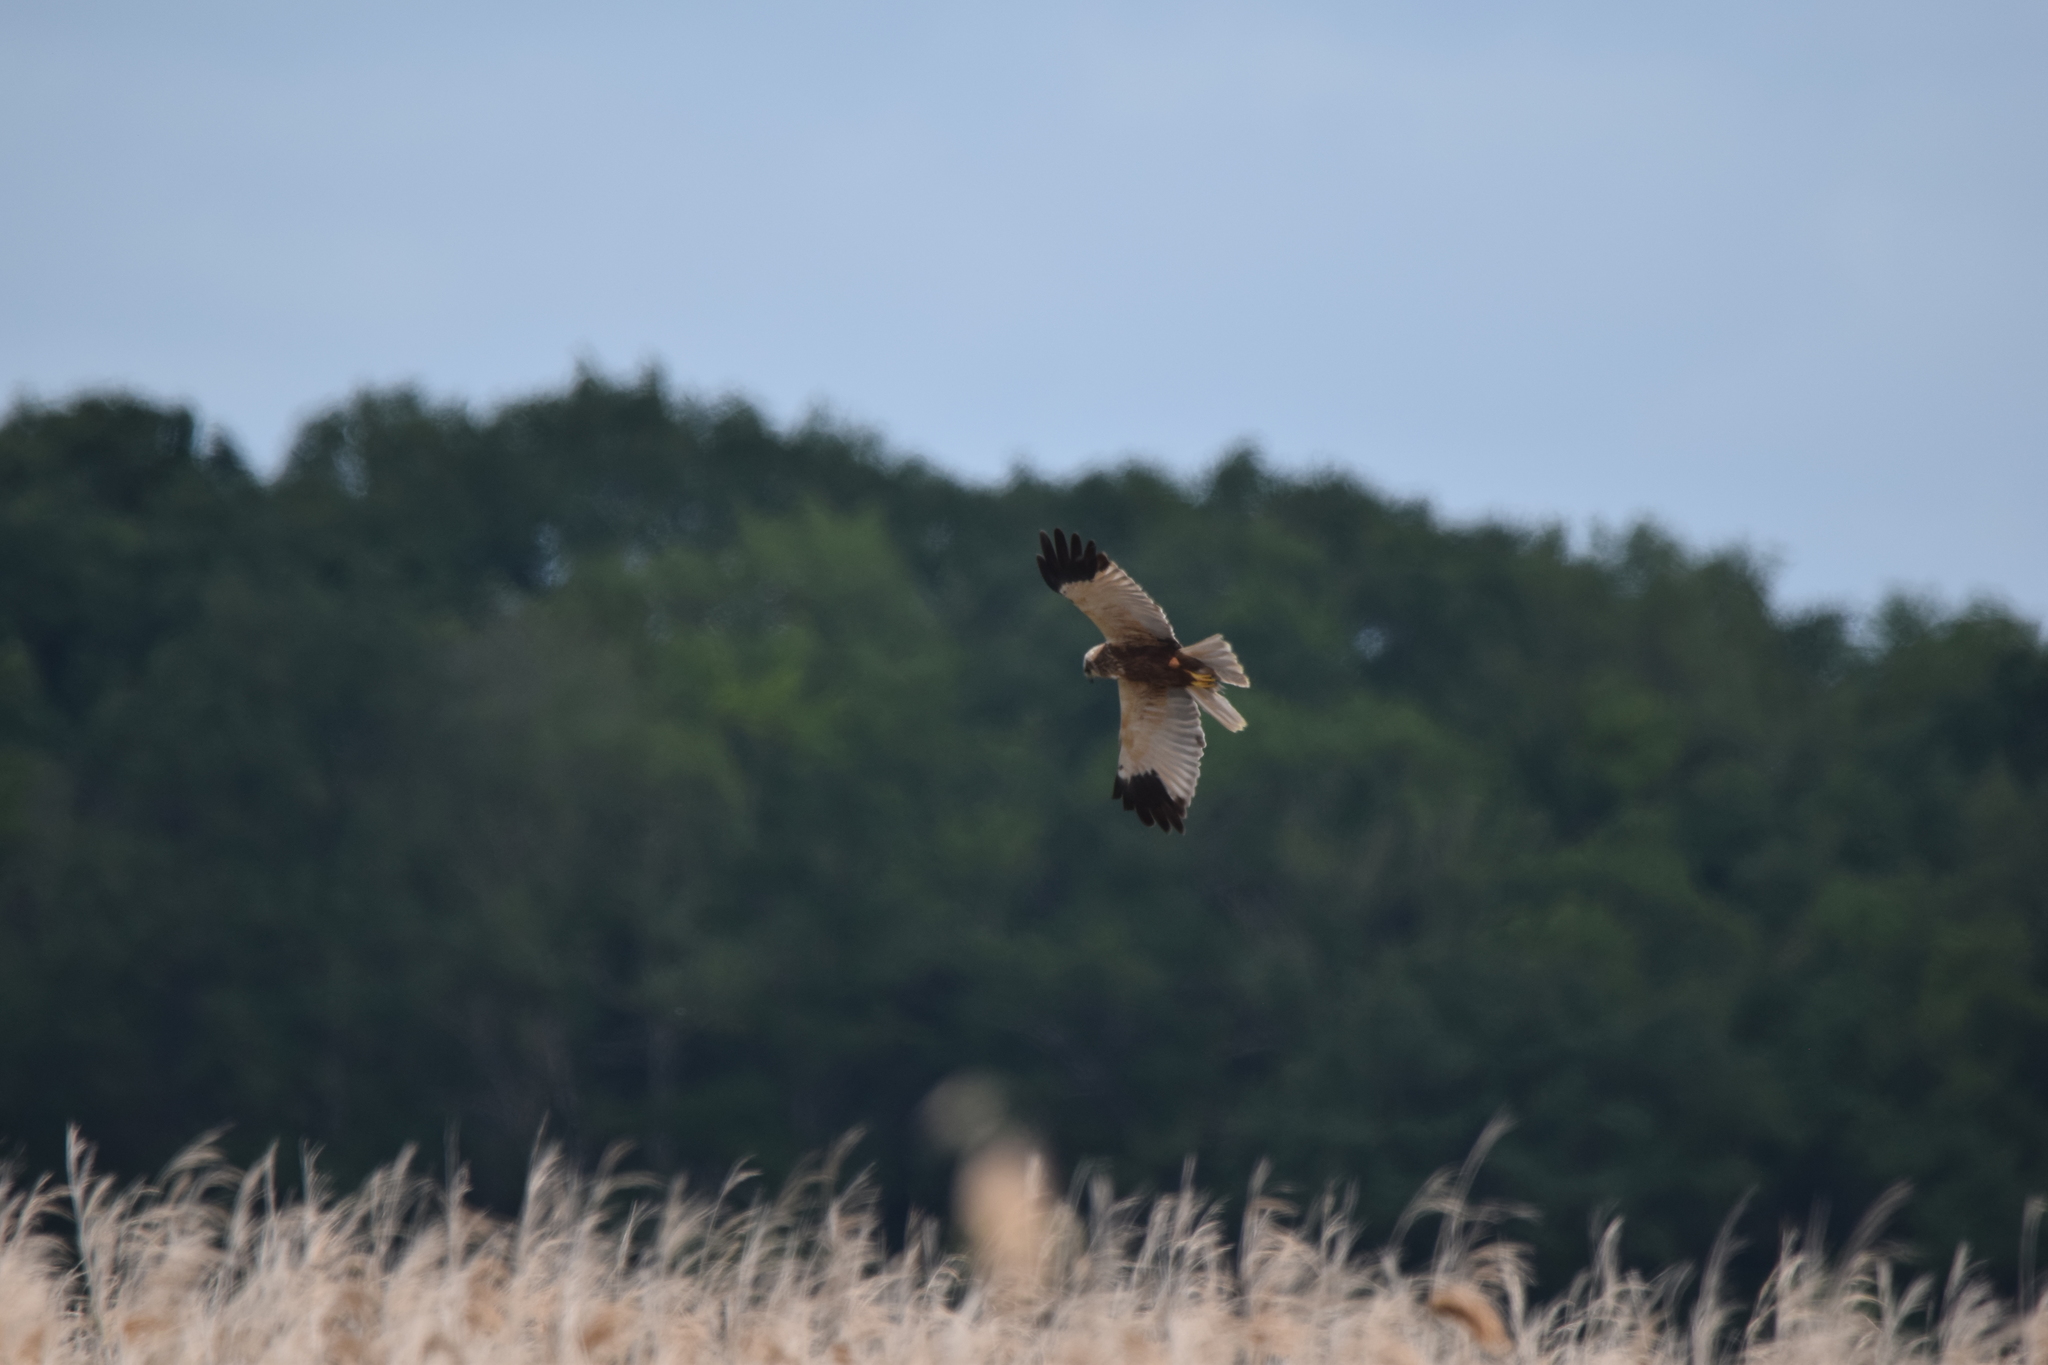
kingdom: Animalia
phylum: Chordata
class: Aves
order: Accipitriformes
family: Accipitridae
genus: Circus
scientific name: Circus aeruginosus
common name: Western marsh harrier
